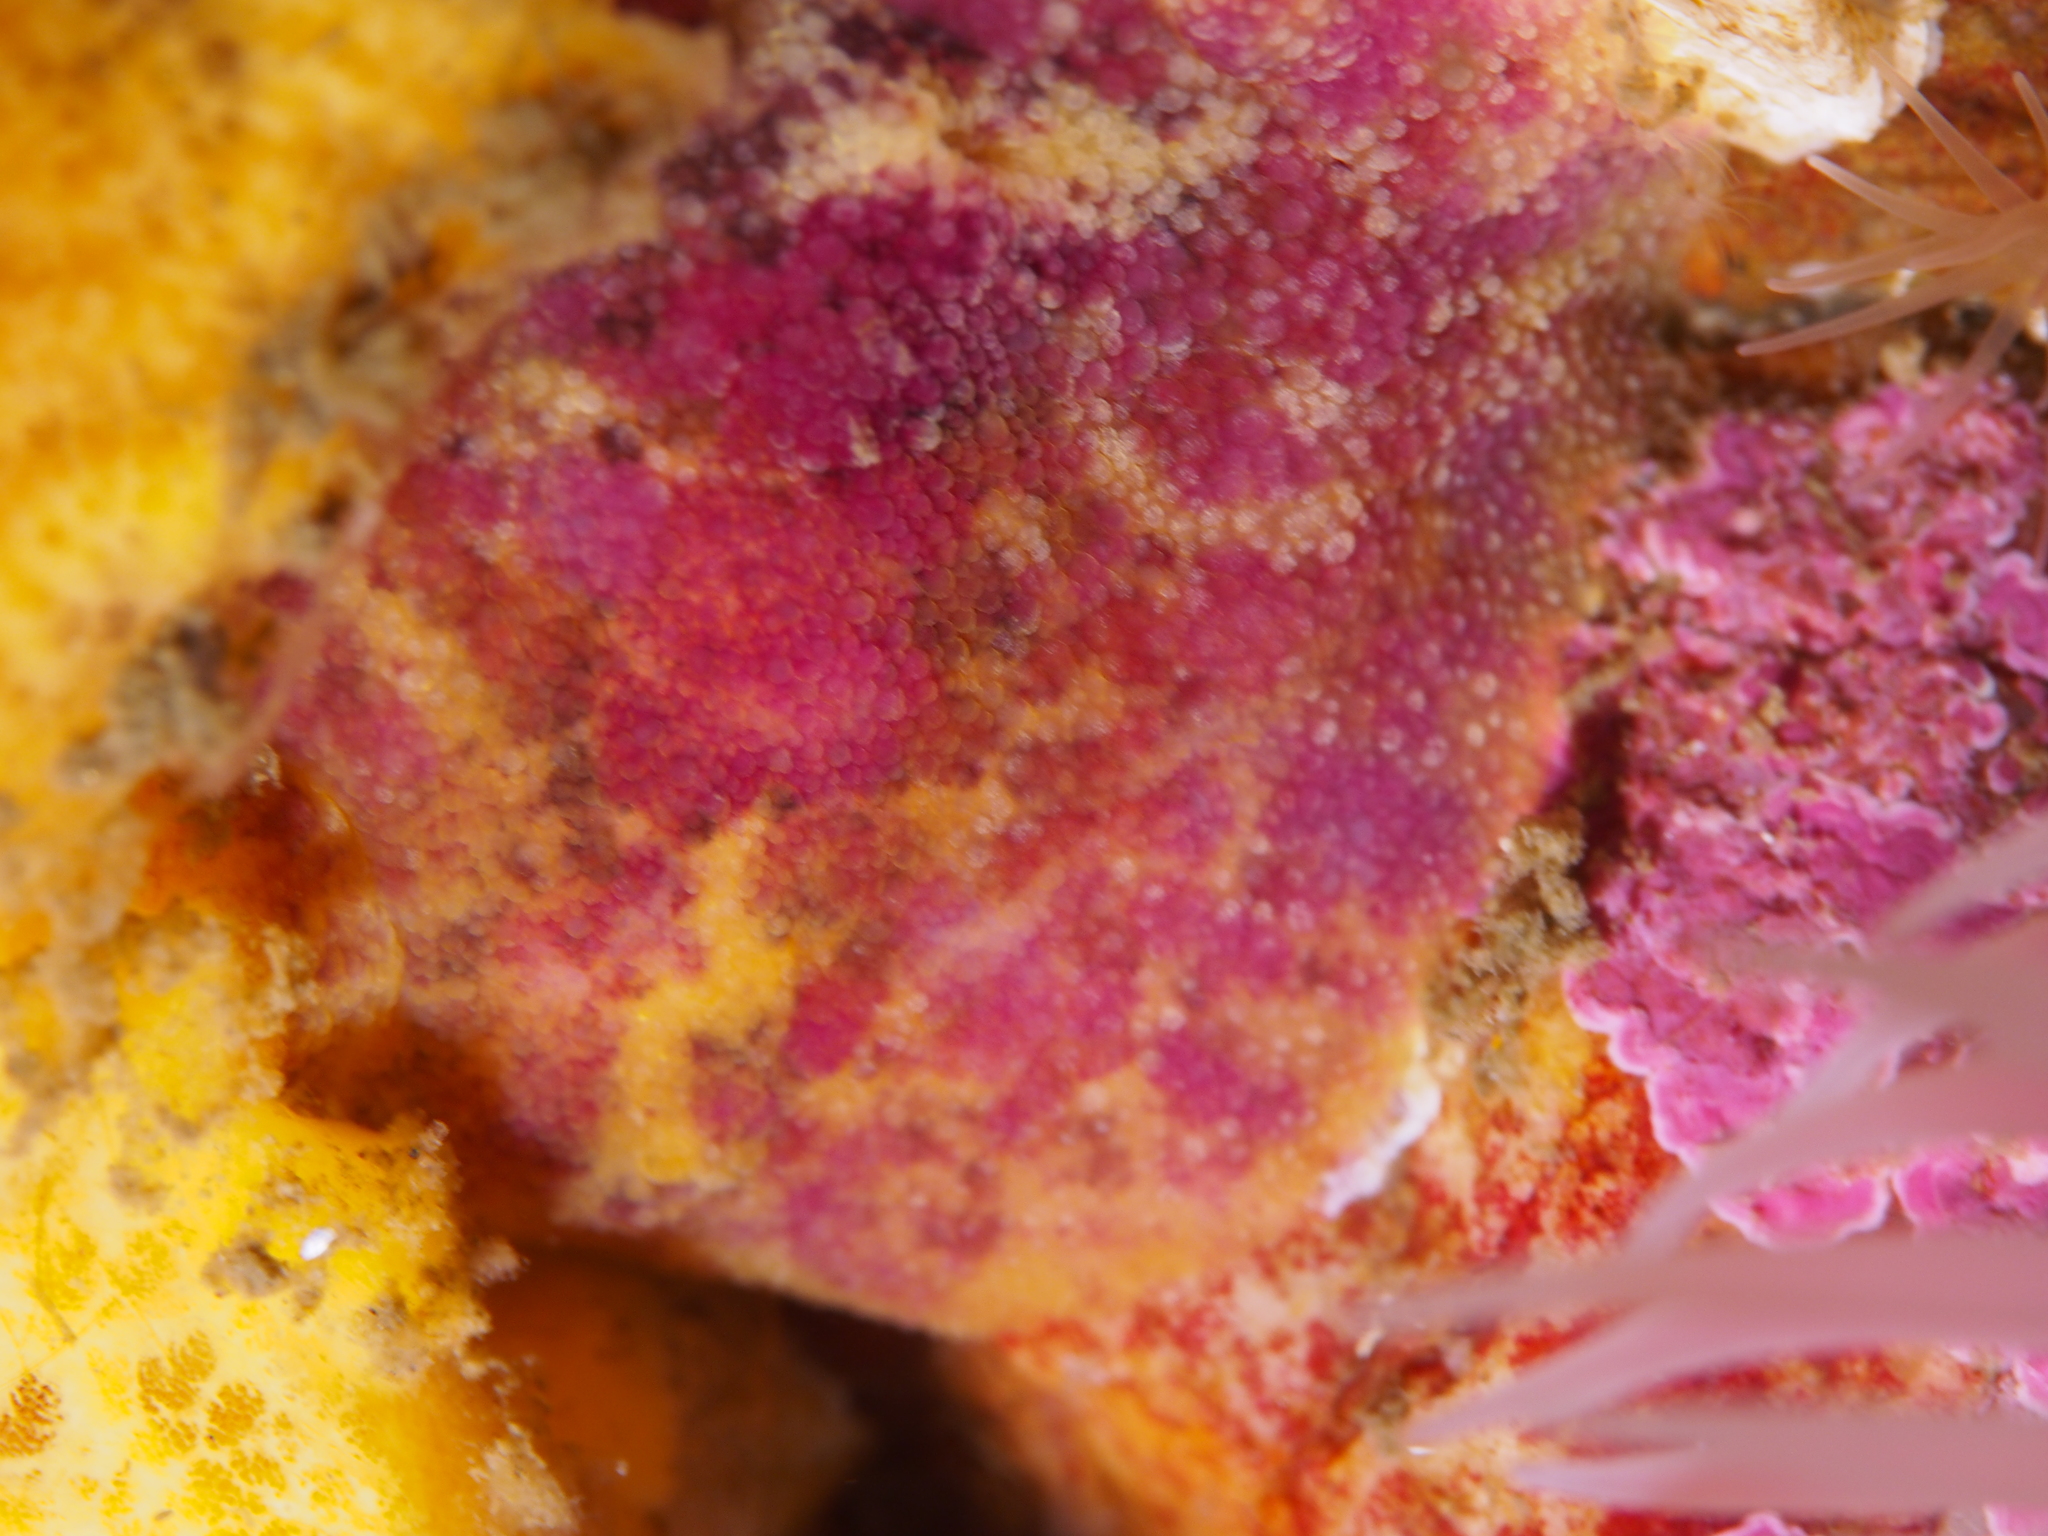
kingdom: Animalia
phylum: Mollusca
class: Gastropoda
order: Nudibranchia
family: Dorididae
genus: Doris
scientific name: Doris pseudoargus
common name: Sea lemon
